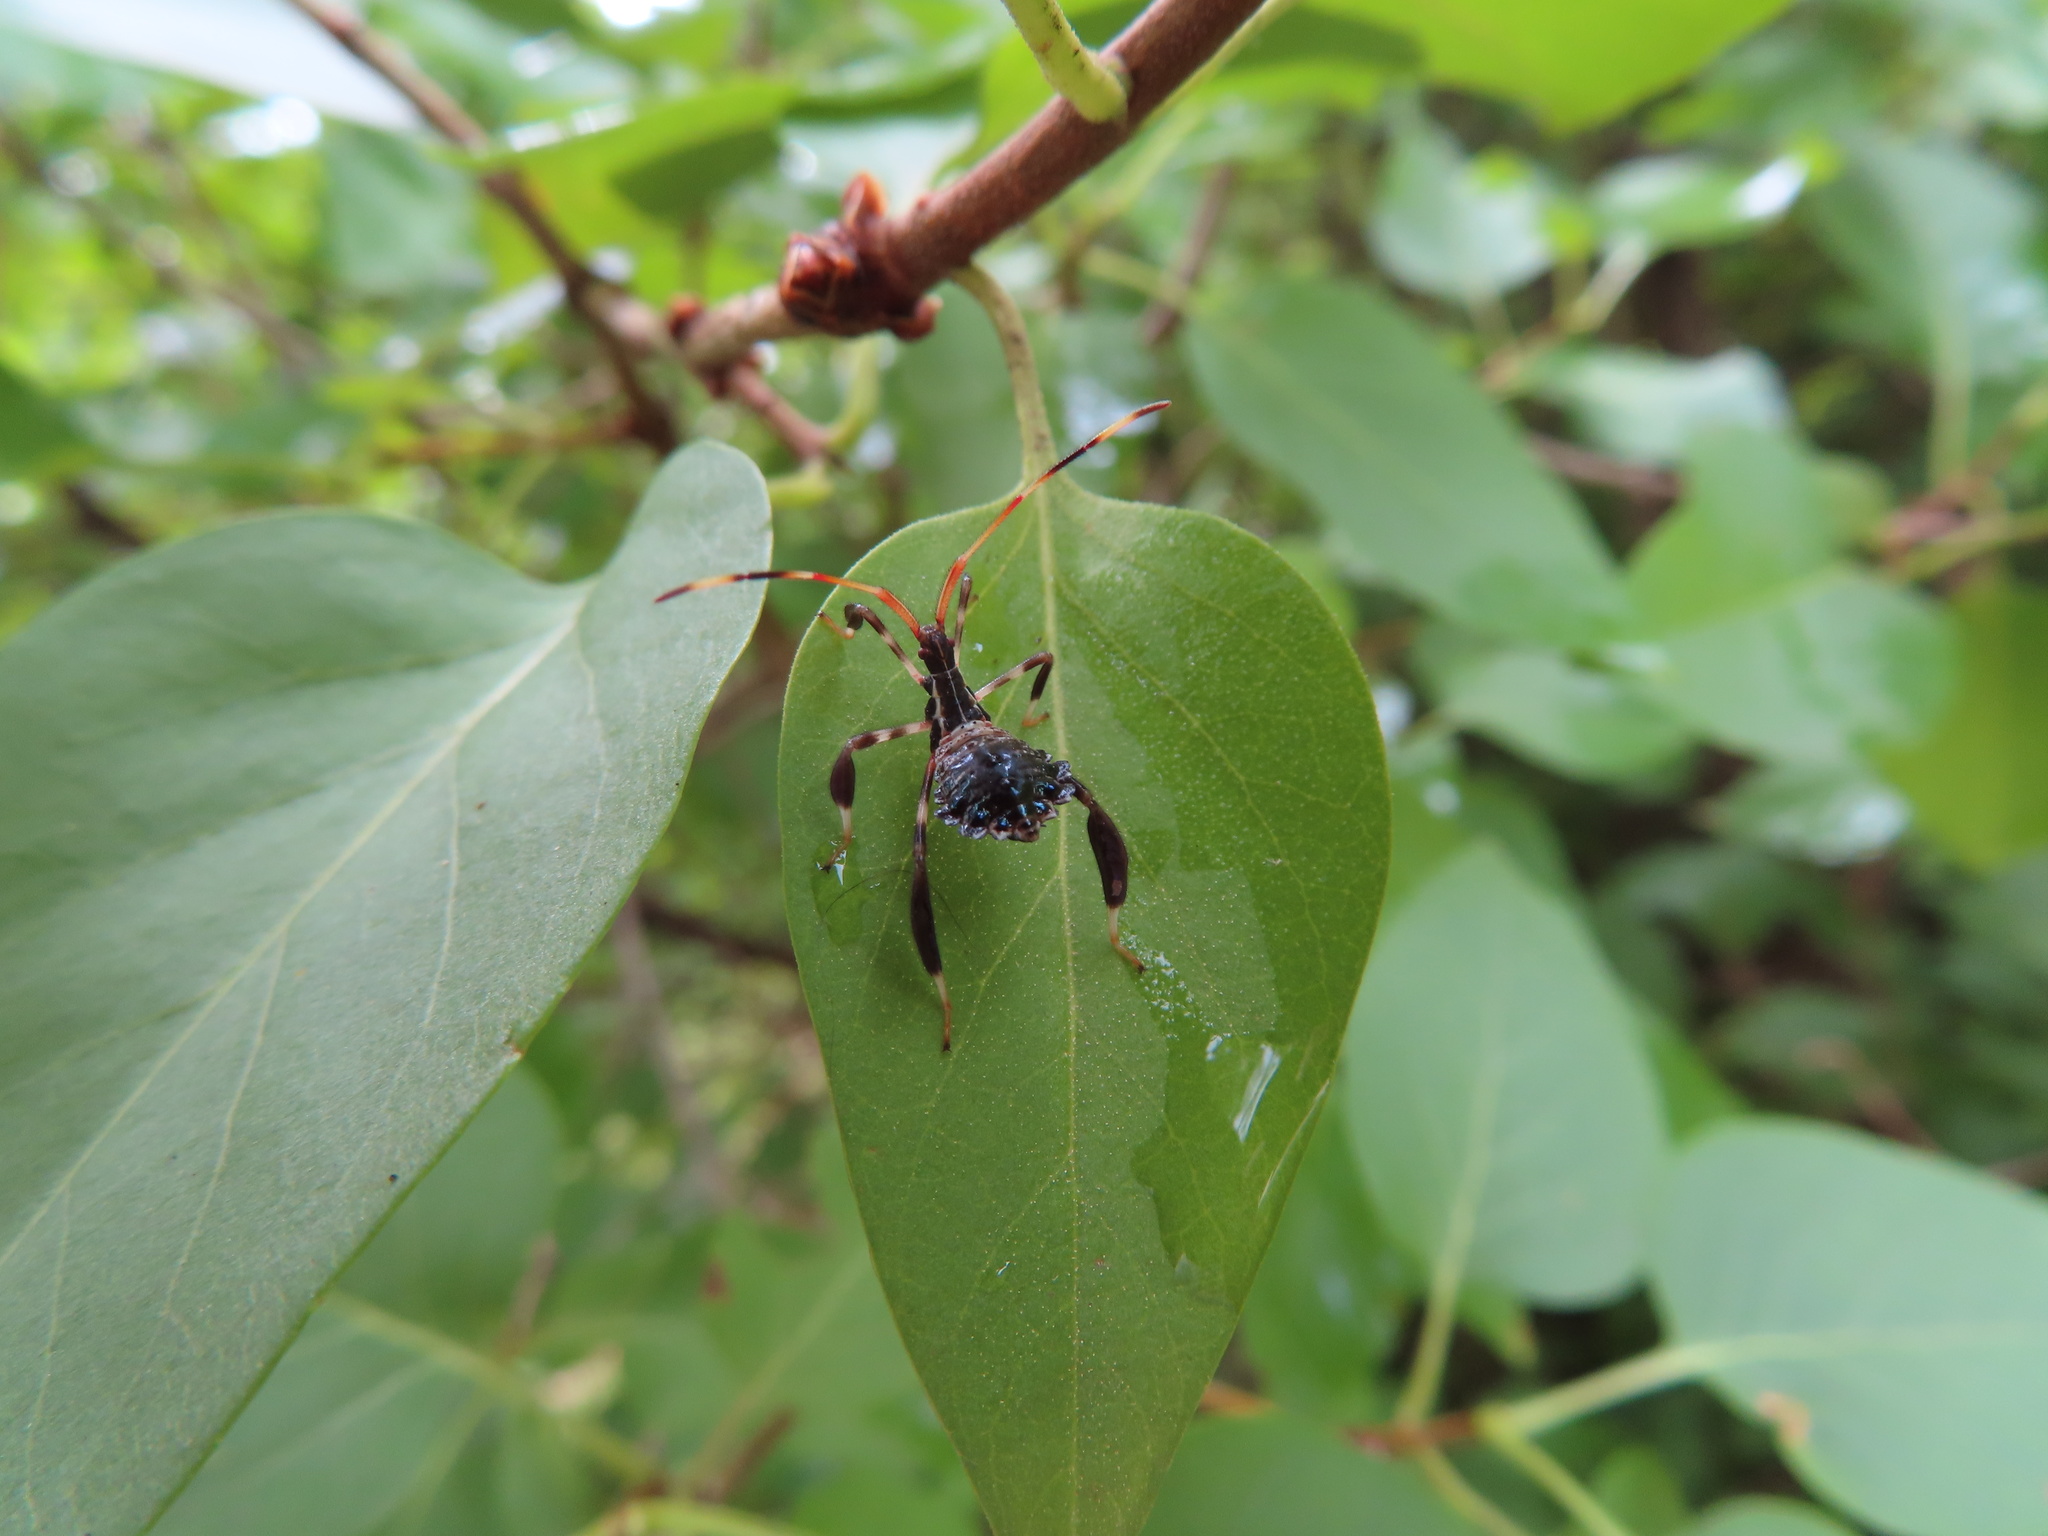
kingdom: Animalia
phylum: Arthropoda
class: Insecta
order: Hemiptera
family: Coreidae
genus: Acanthocephala
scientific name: Acanthocephala terminalis
